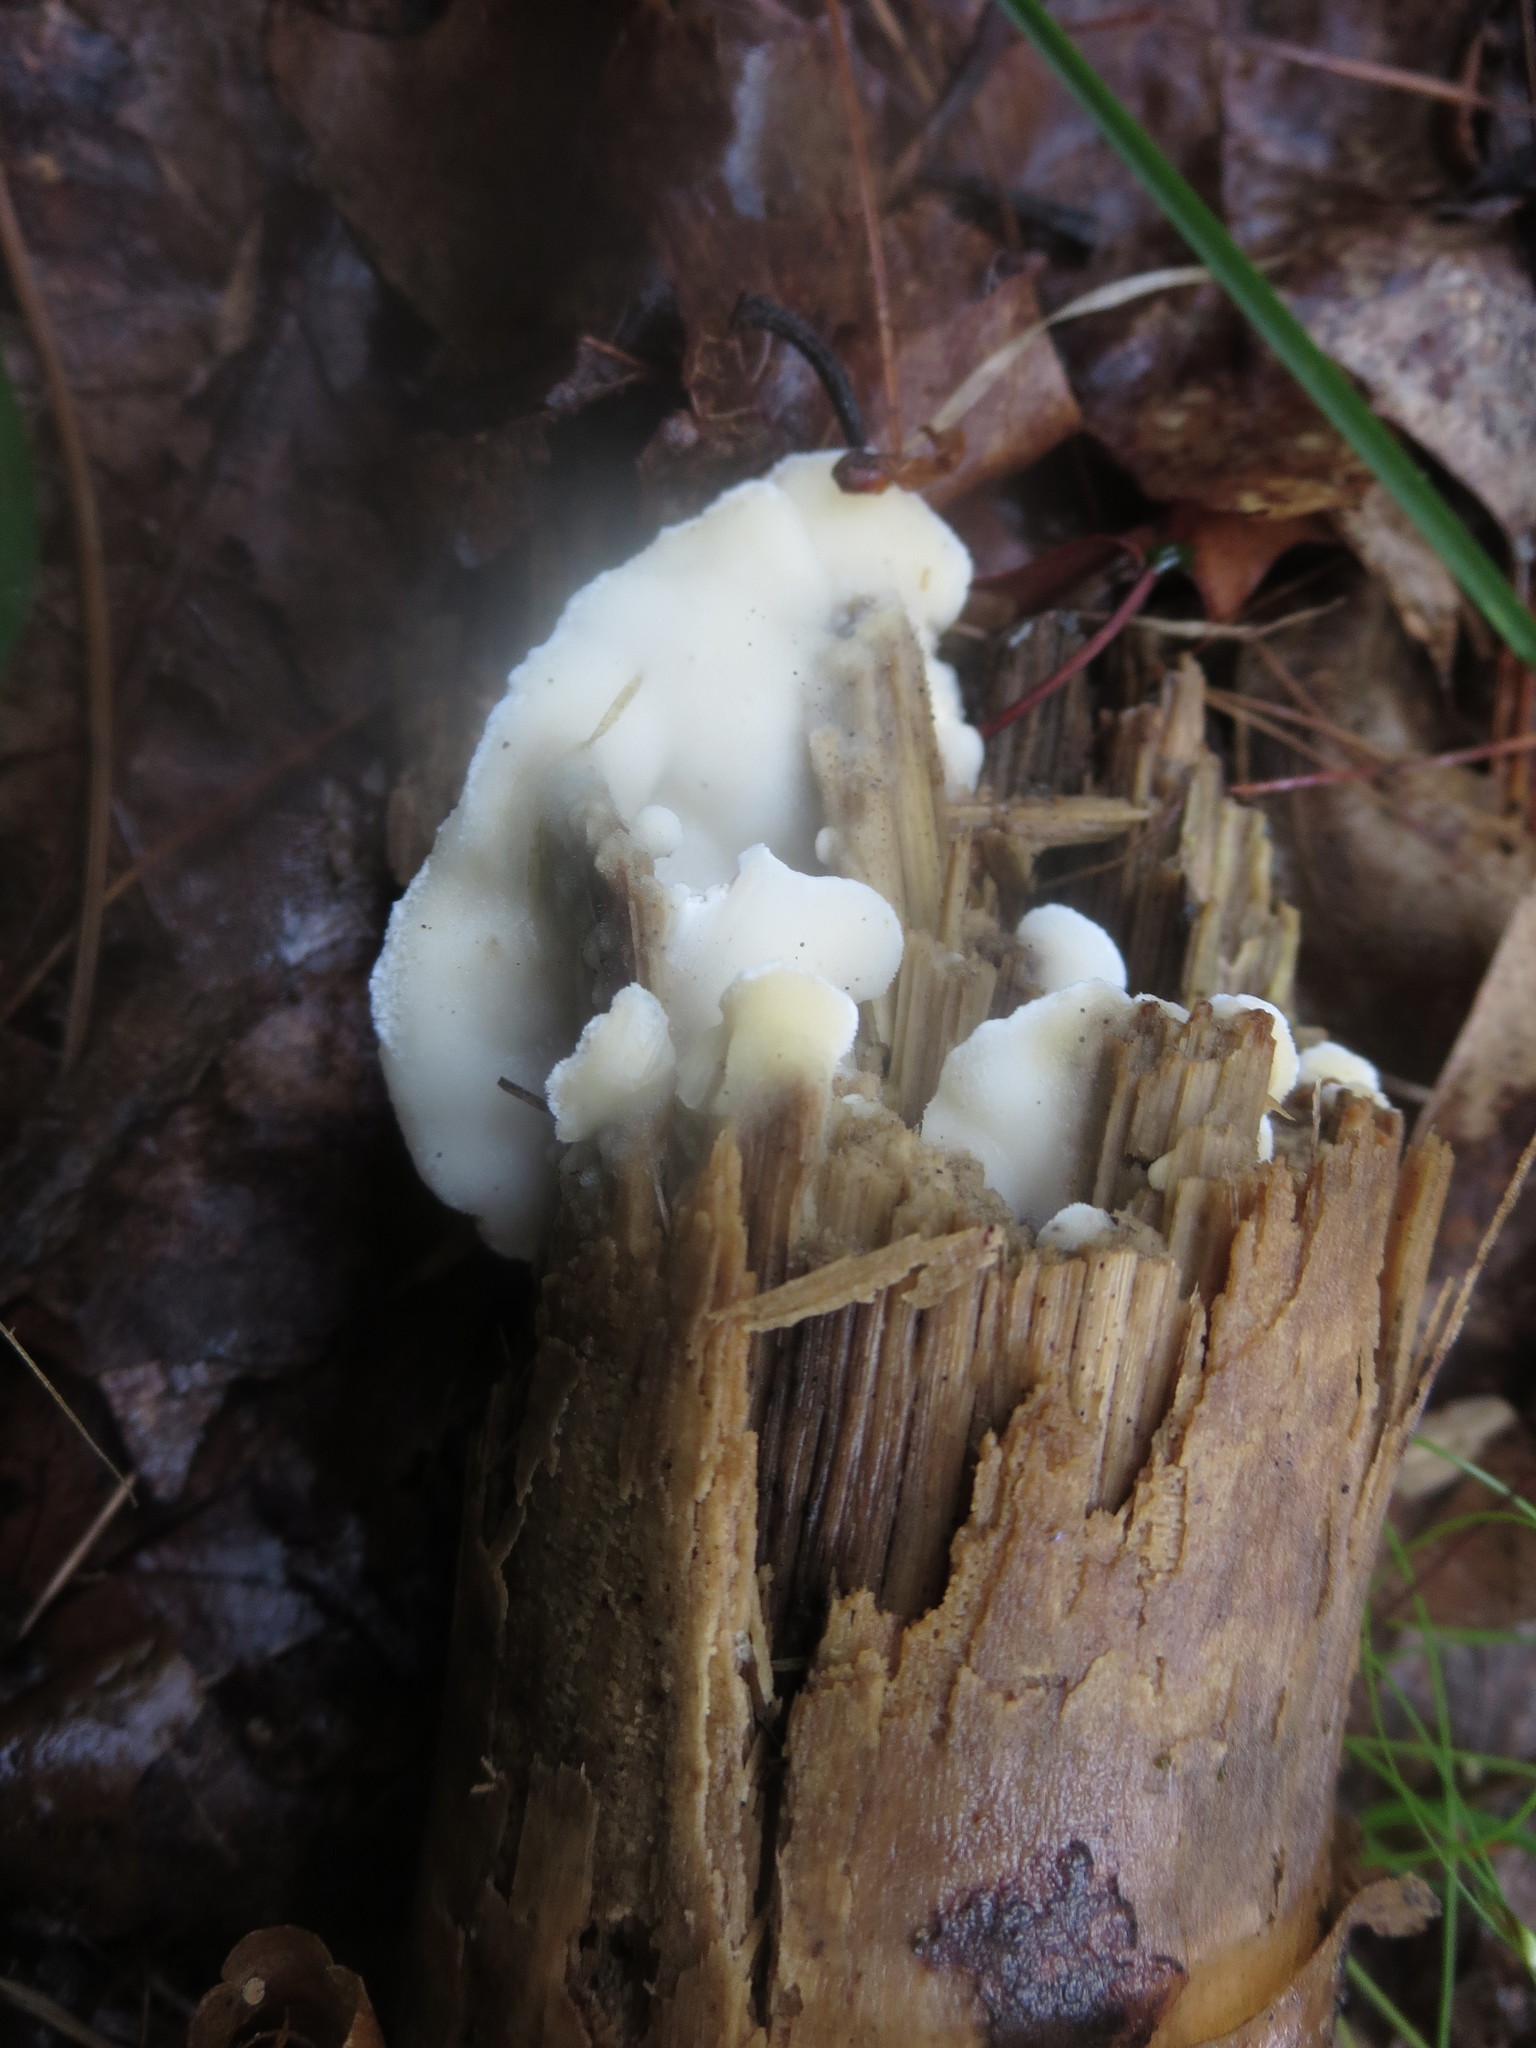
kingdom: Fungi
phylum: Basidiomycota
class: Agaricomycetes
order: Polyporales
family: Irpicaceae
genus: Vitreoporus
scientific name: Vitreoporus dichrous
